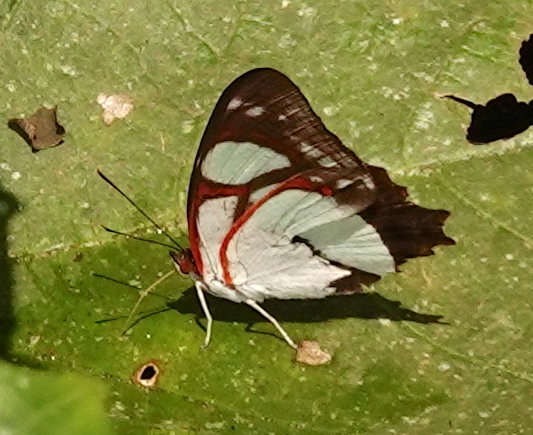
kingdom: Animalia
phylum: Arthropoda
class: Insecta
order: Lepidoptera
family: Nymphalidae
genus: Pyrrhogyra
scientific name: Pyrrhogyra amphiro
